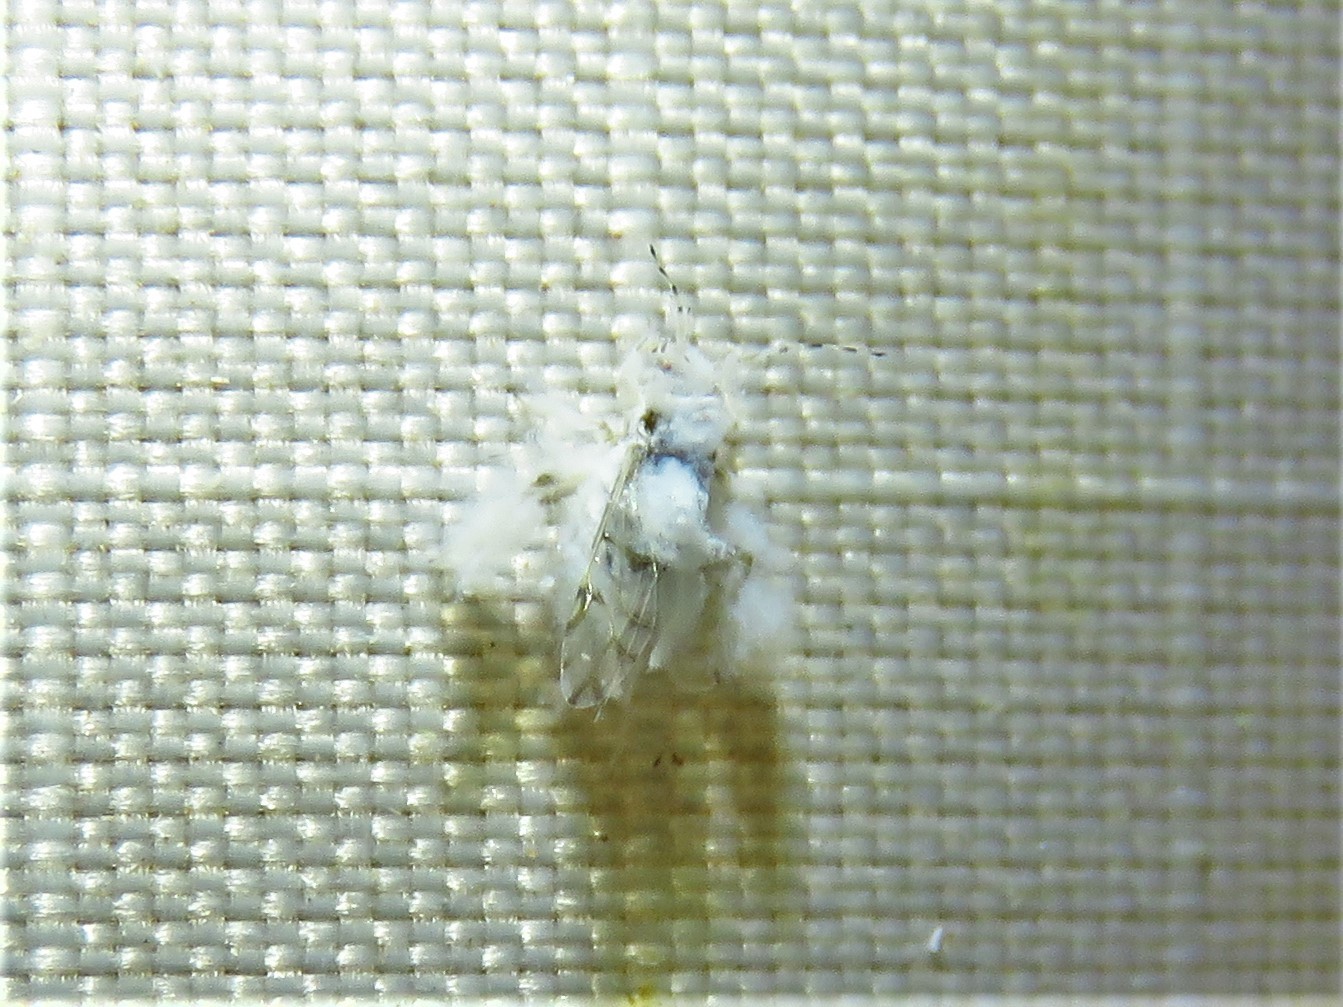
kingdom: Animalia
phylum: Arthropoda
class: Insecta
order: Hemiptera
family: Aphididae
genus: Shivaphis
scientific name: Shivaphis celti
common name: Asian wooly hackberry aphid
